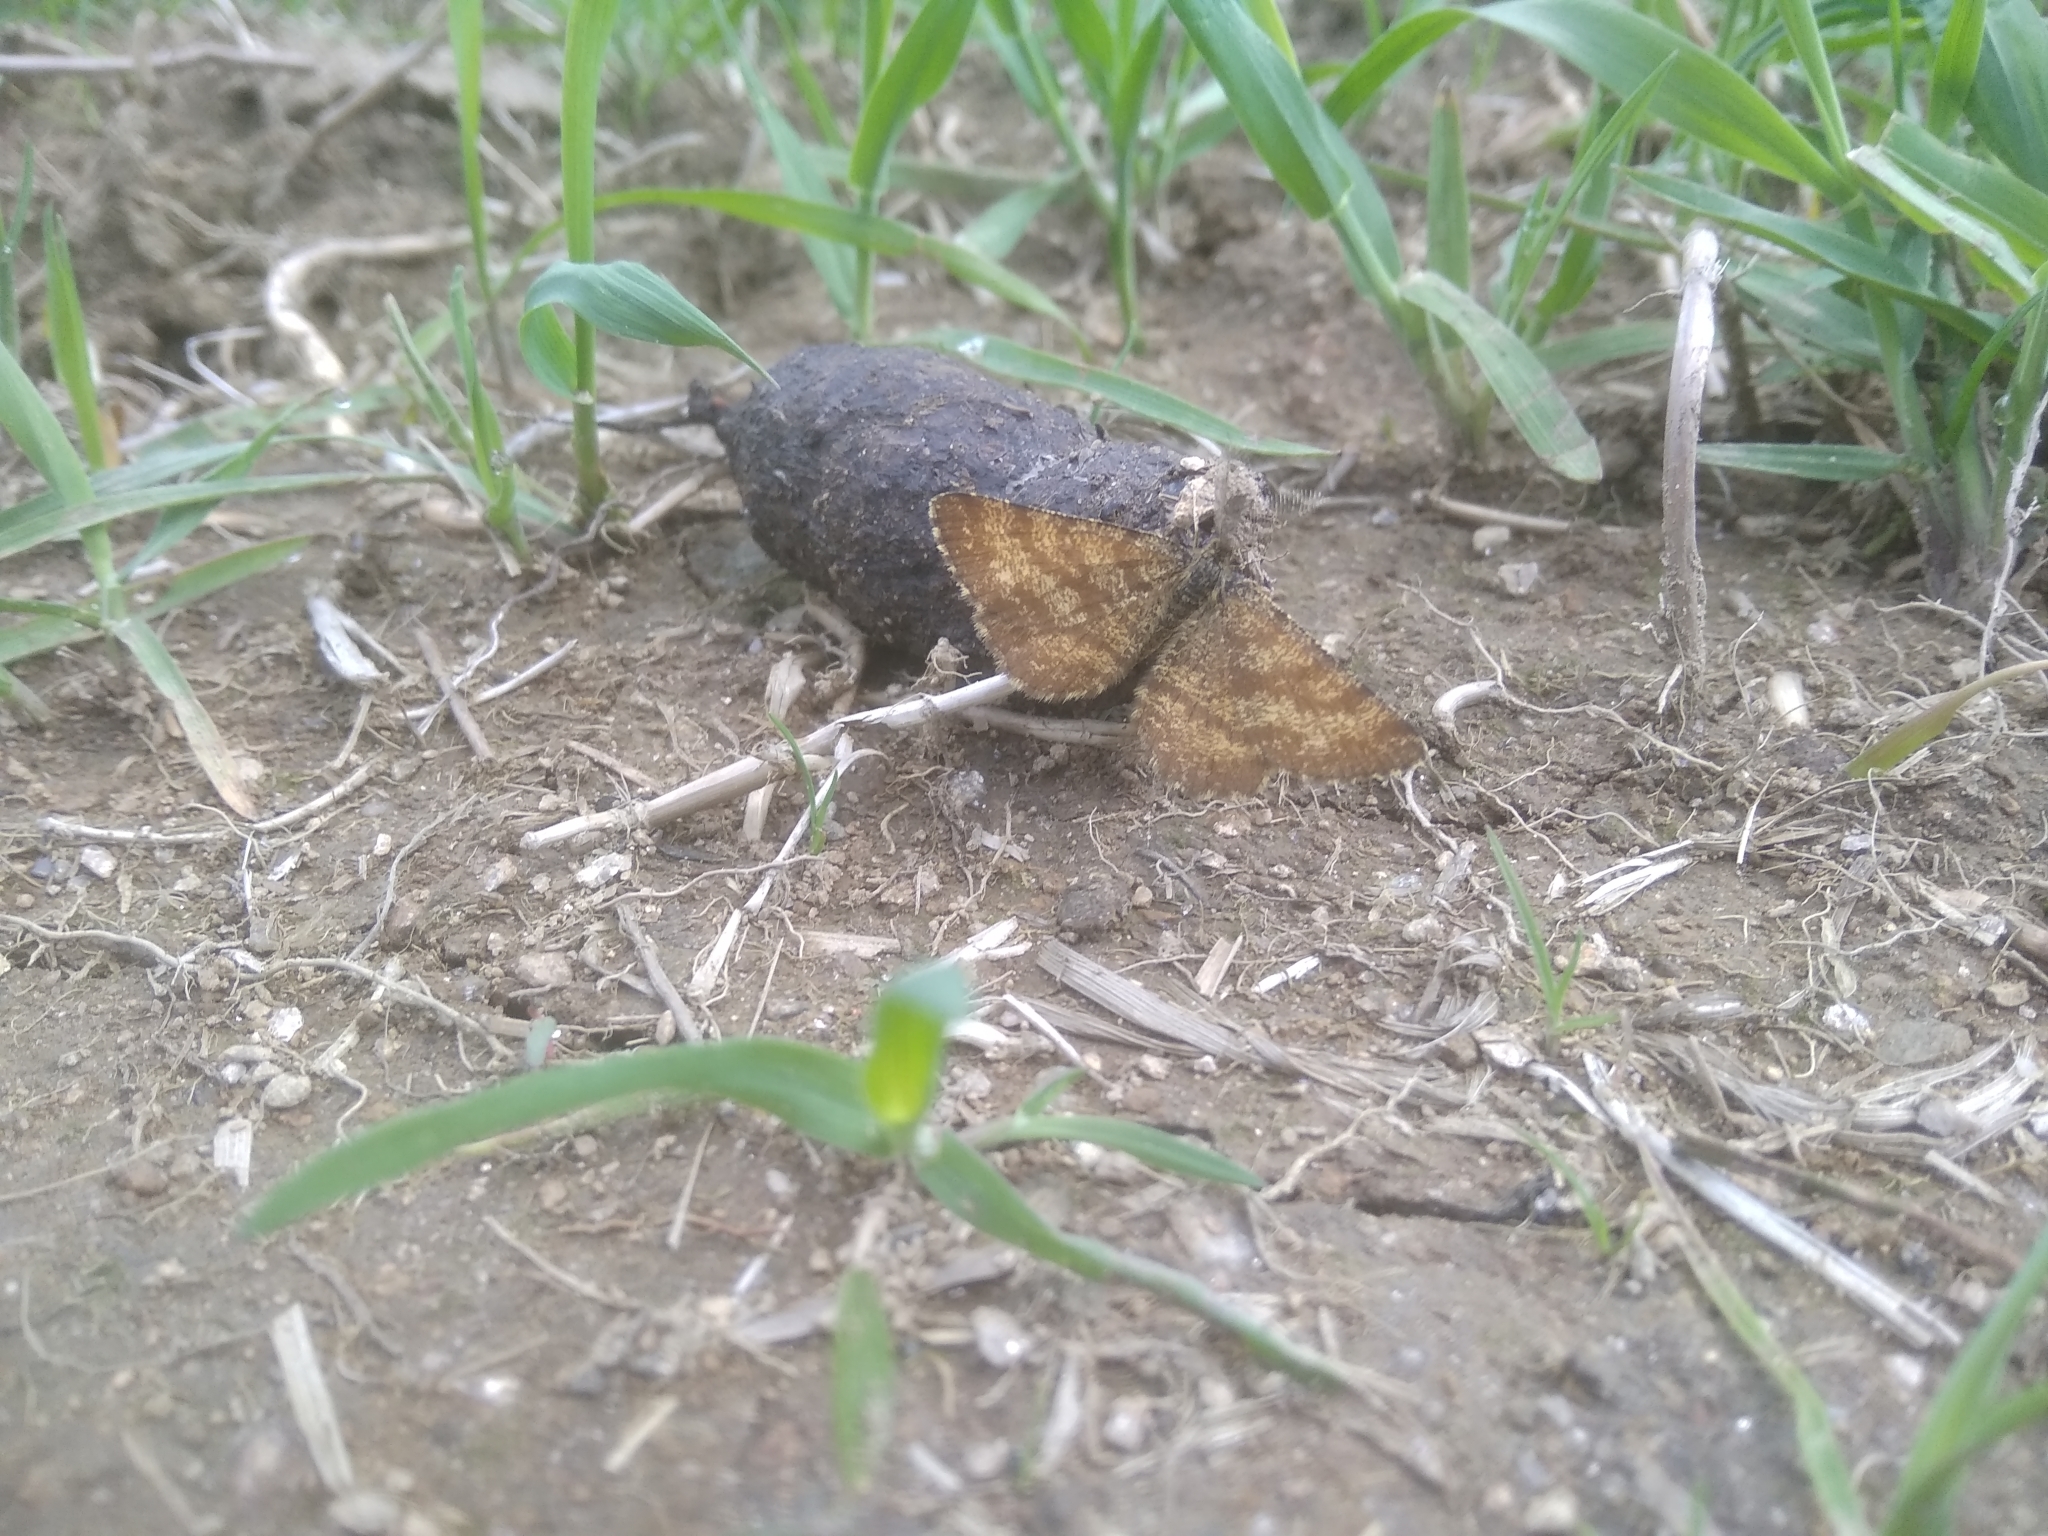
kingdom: Animalia
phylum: Arthropoda
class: Insecta
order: Lepidoptera
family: Geometridae
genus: Ematurga
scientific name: Ematurga atomaria
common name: Common heath
